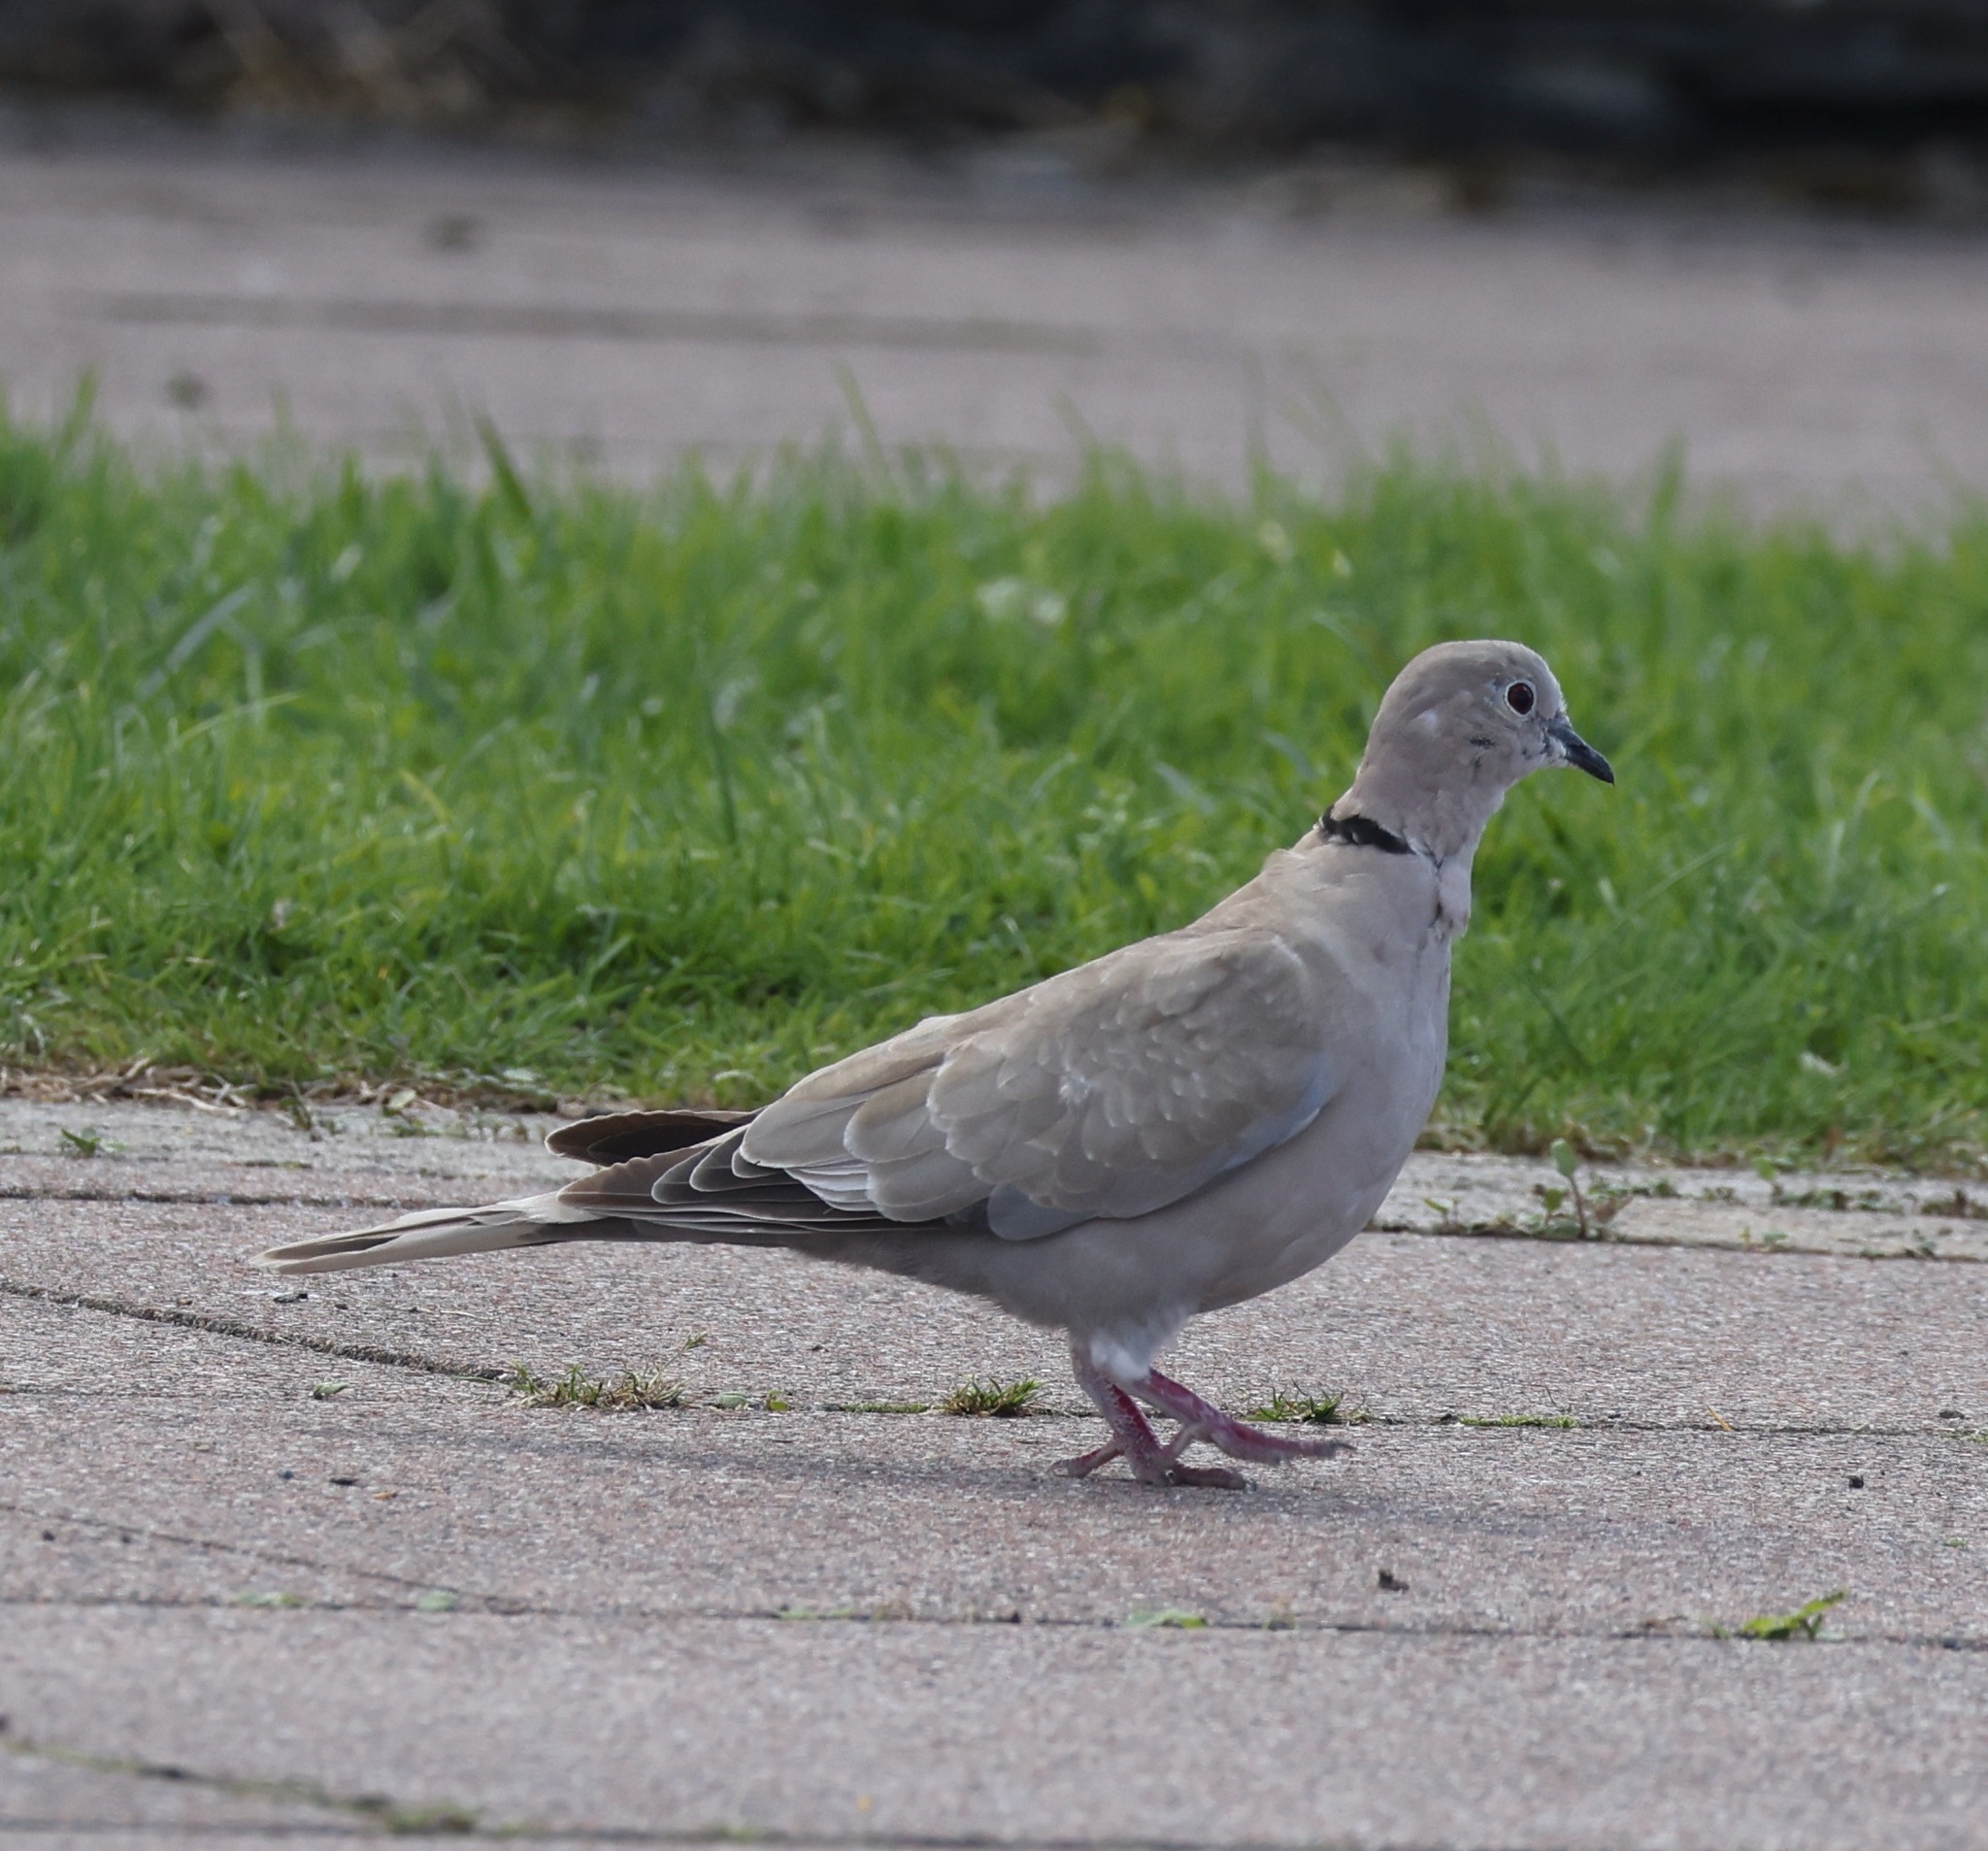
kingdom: Animalia
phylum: Chordata
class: Aves
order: Columbiformes
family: Columbidae
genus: Streptopelia
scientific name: Streptopelia decaocto
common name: Eurasian collared dove
